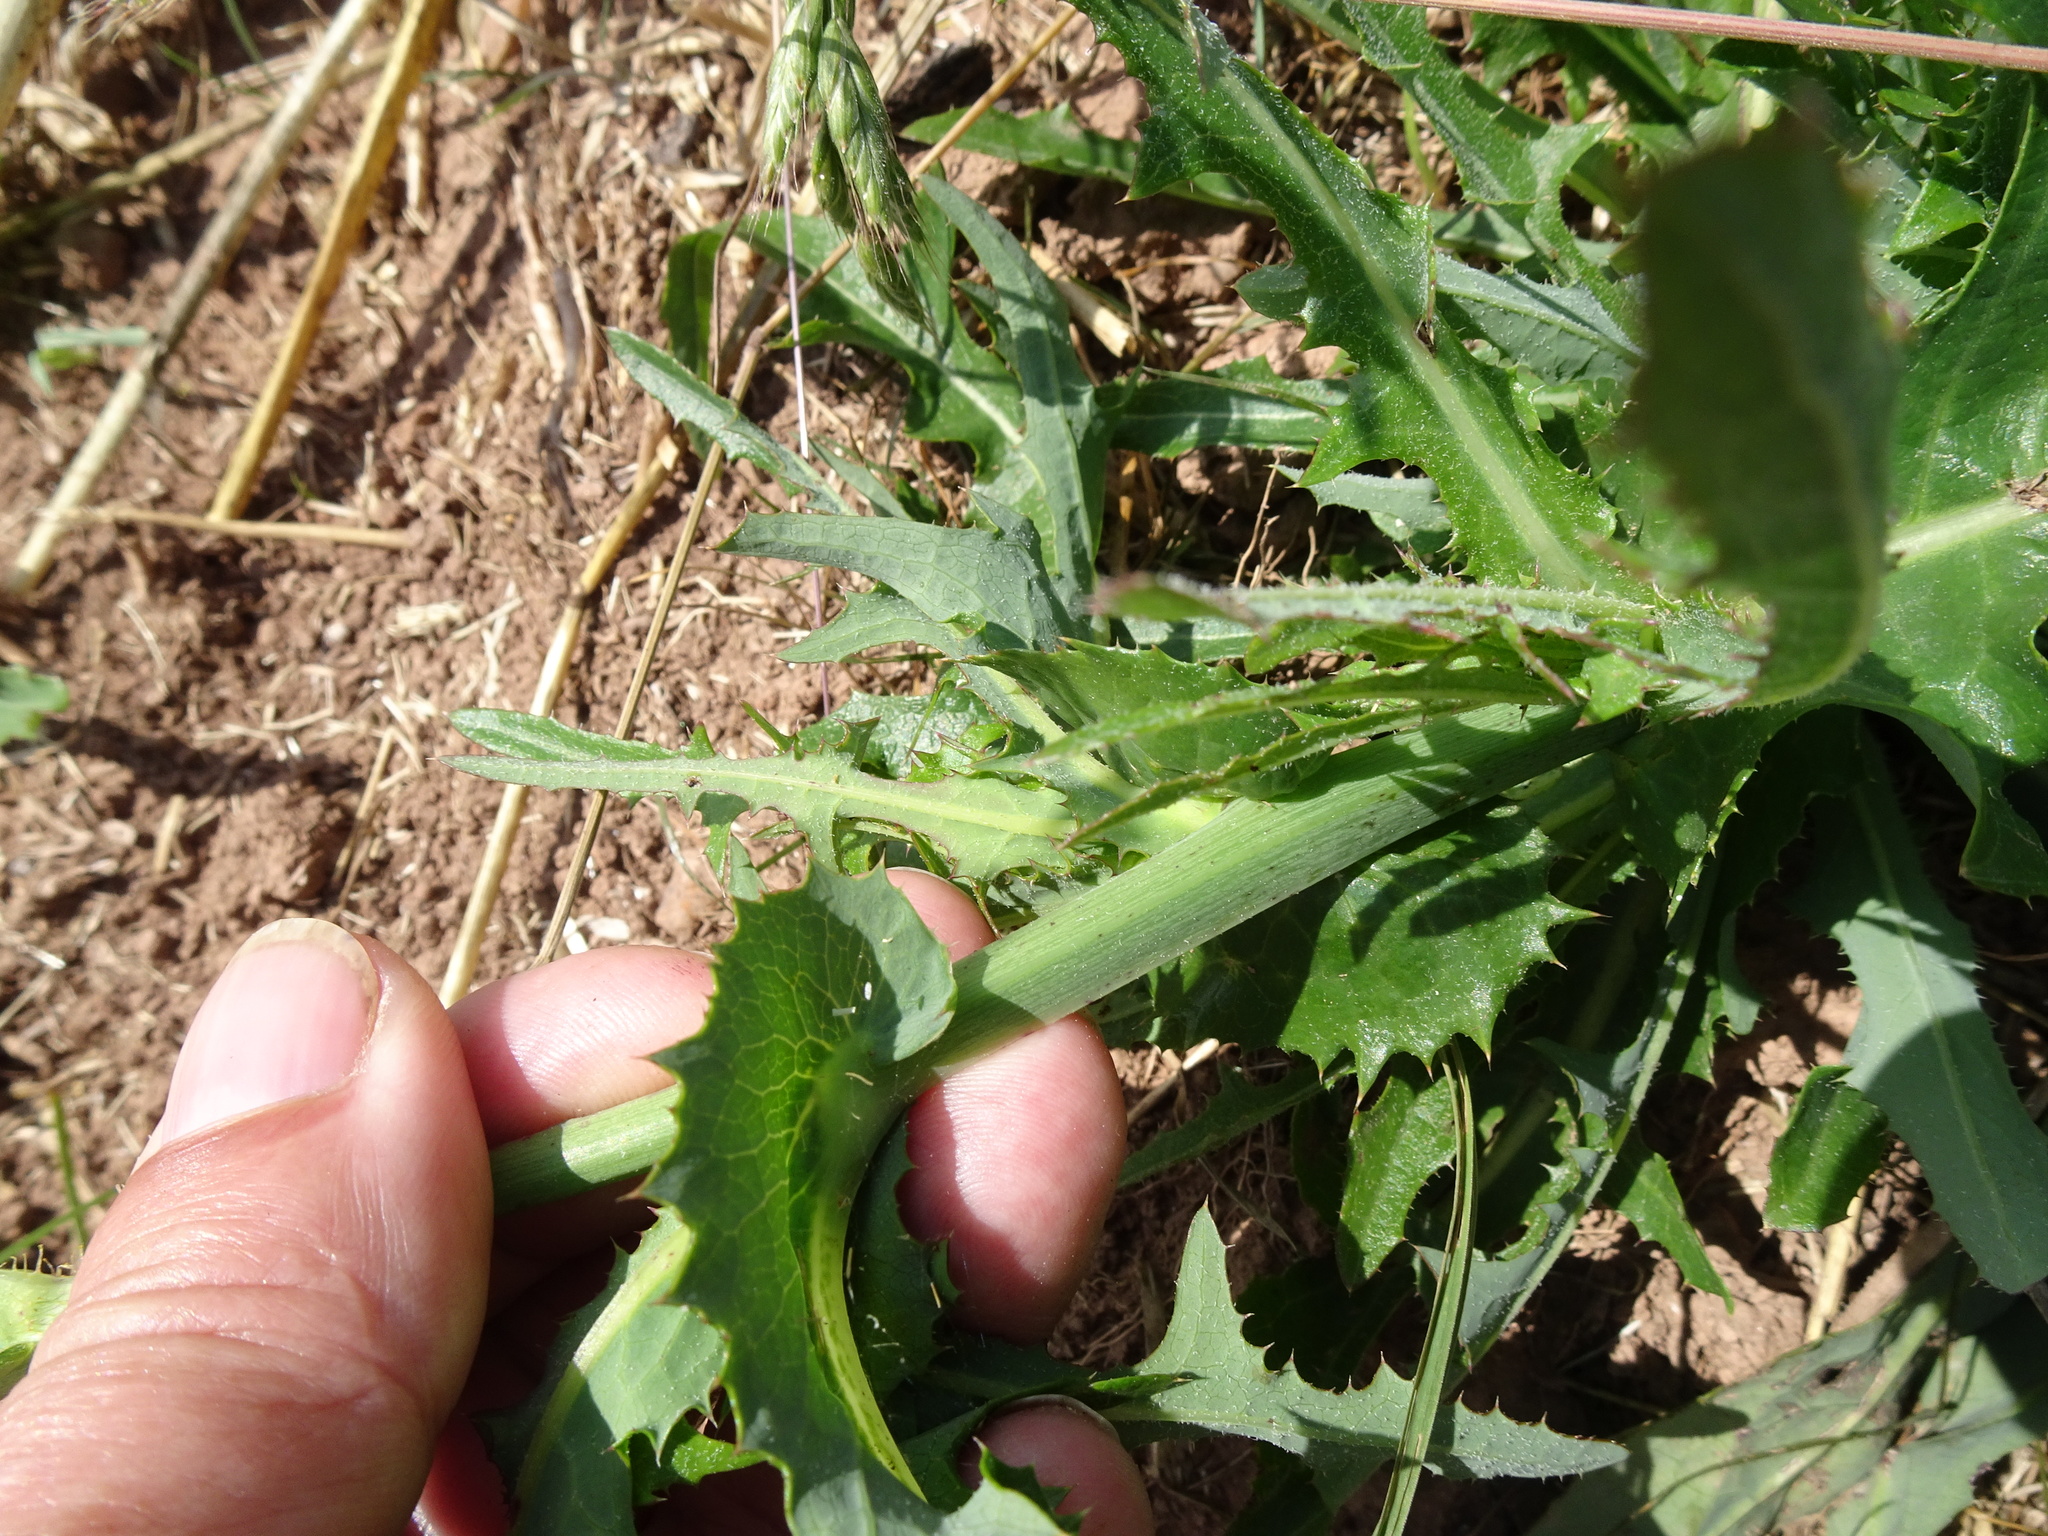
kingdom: Plantae
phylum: Tracheophyta
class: Magnoliopsida
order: Asterales
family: Asteraceae
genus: Sonchus
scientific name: Sonchus arvensis
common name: Perennial sow-thistle
